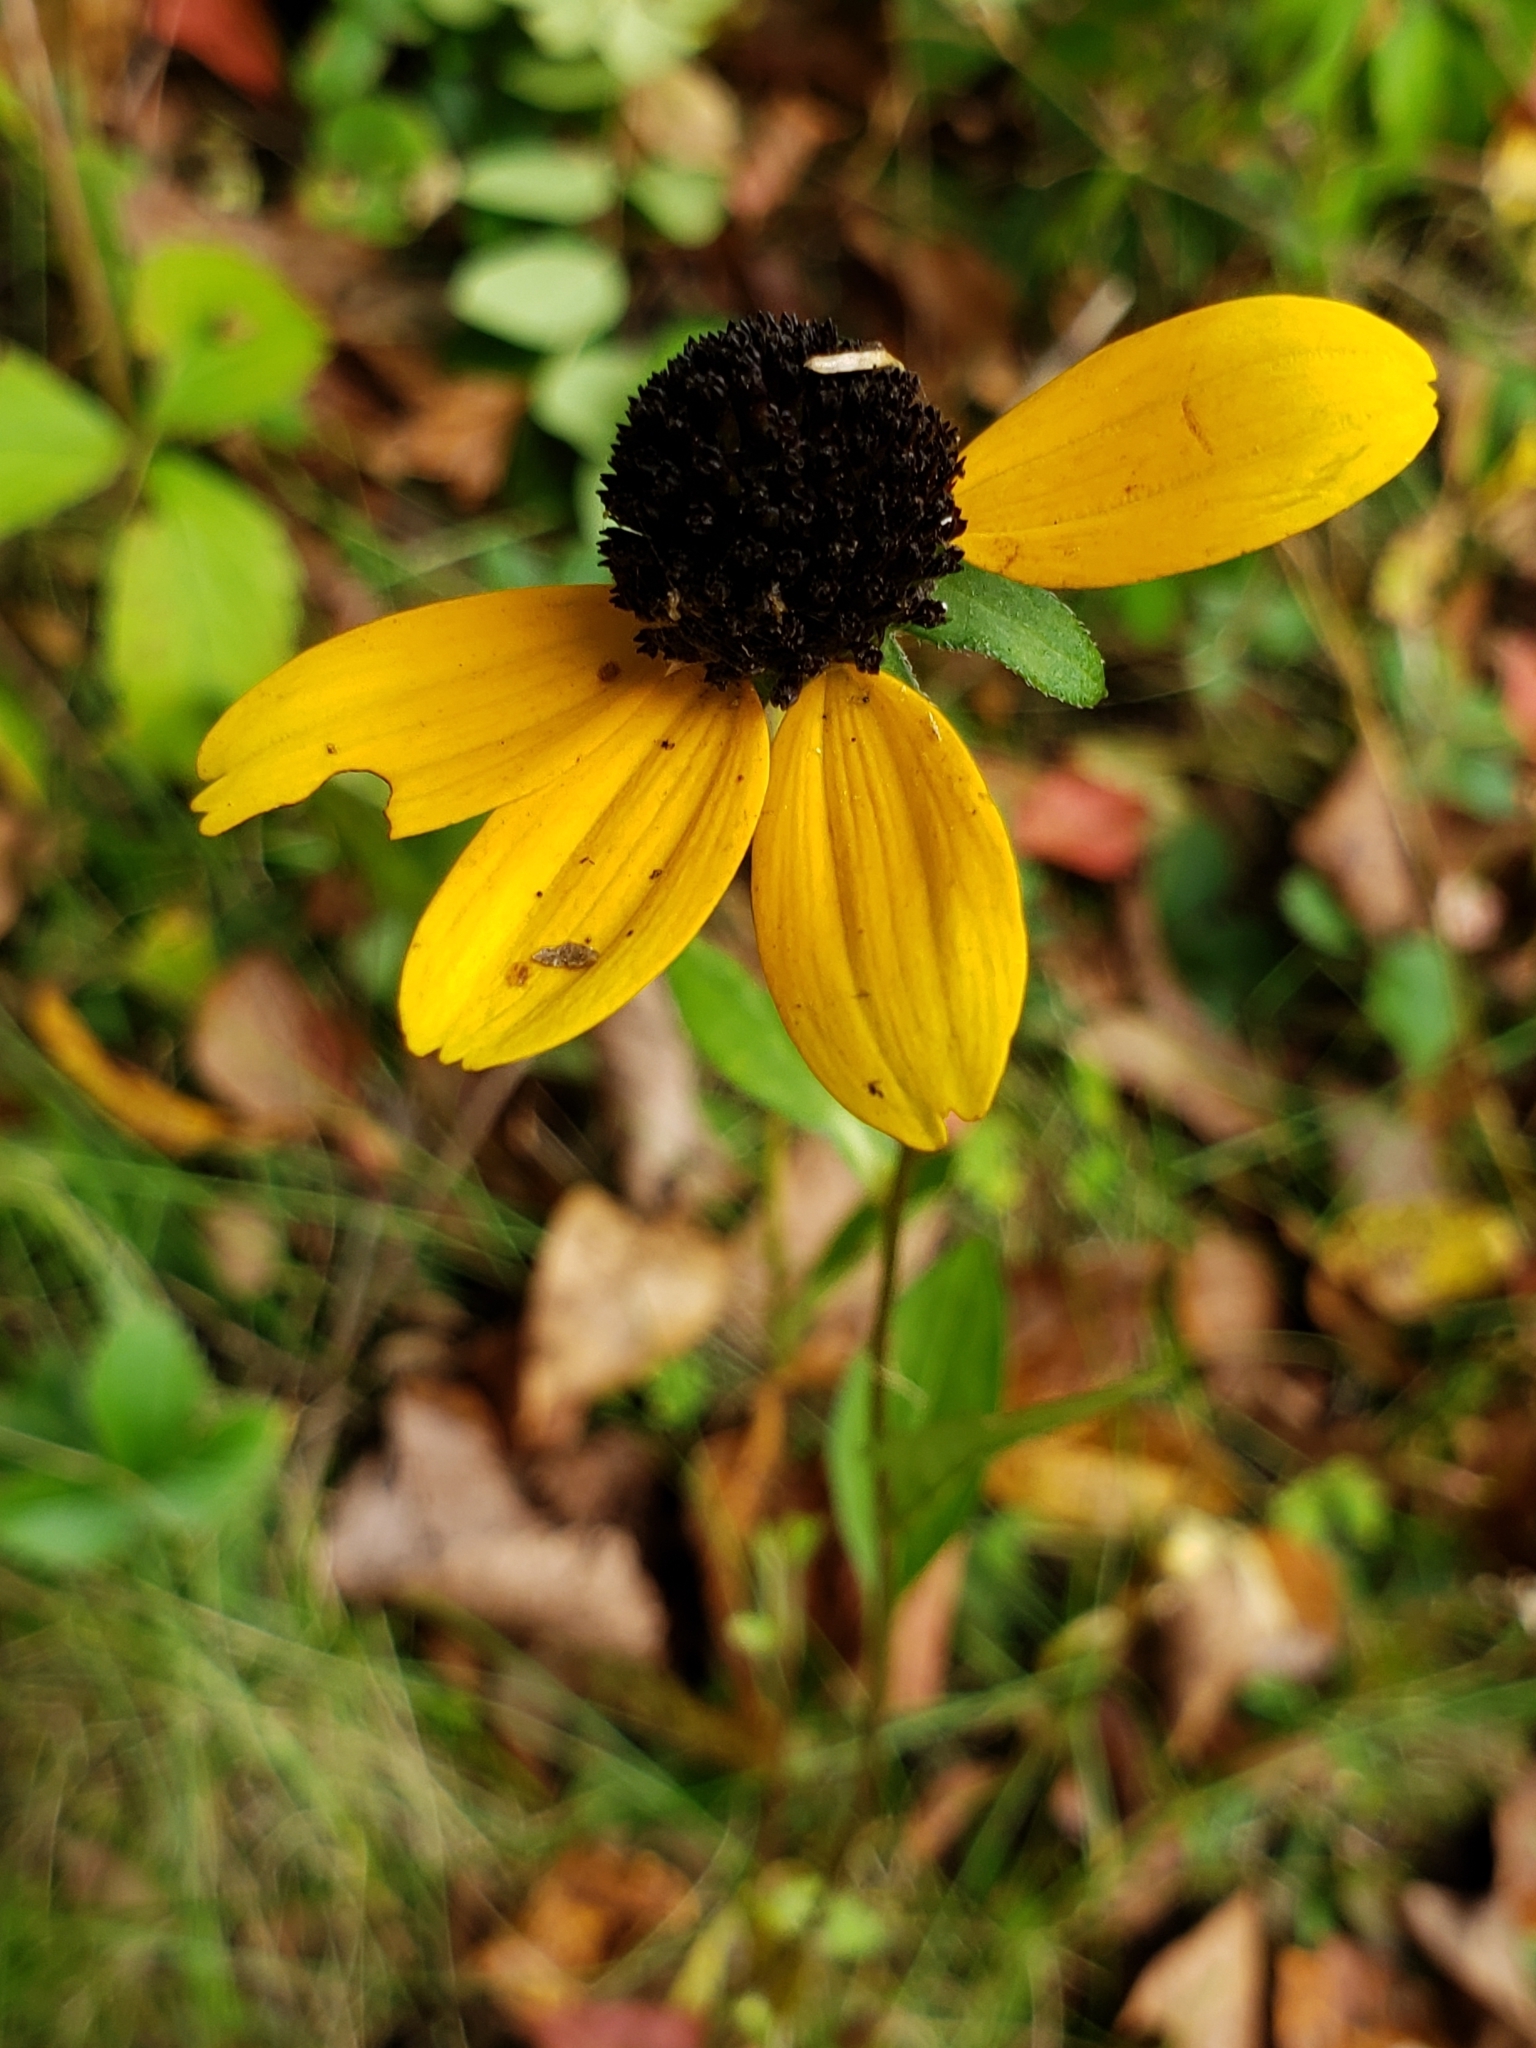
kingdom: Plantae
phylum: Tracheophyta
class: Magnoliopsida
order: Asterales
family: Asteraceae
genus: Rudbeckia
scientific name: Rudbeckia triloba
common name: Thin-leaved coneflower
